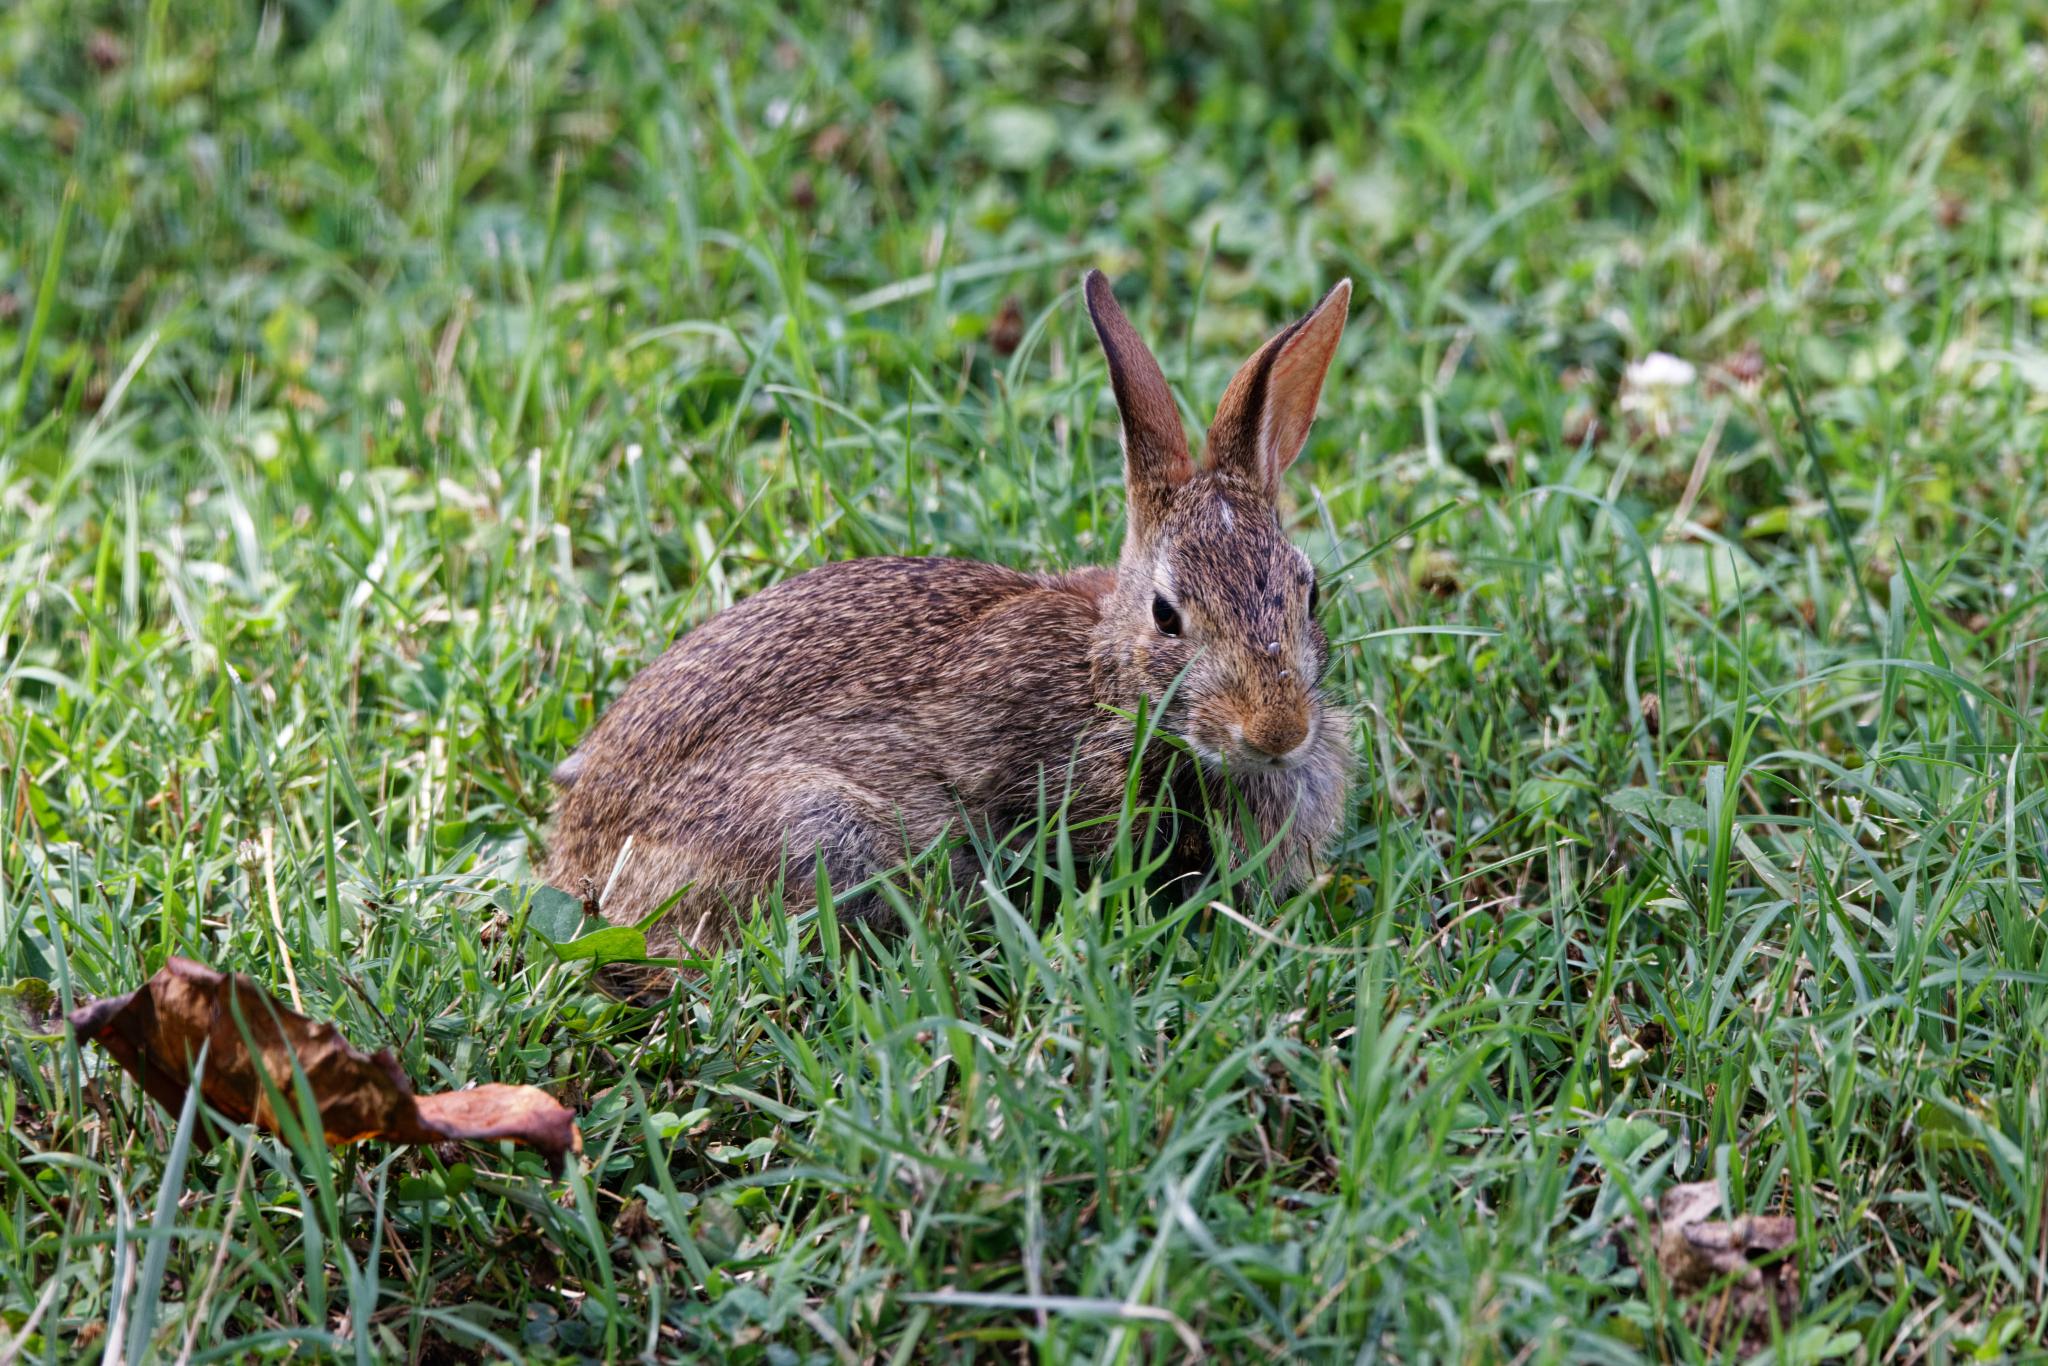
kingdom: Animalia
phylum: Chordata
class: Mammalia
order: Lagomorpha
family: Leporidae
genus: Sylvilagus
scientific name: Sylvilagus floridanus
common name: Eastern cottontail
